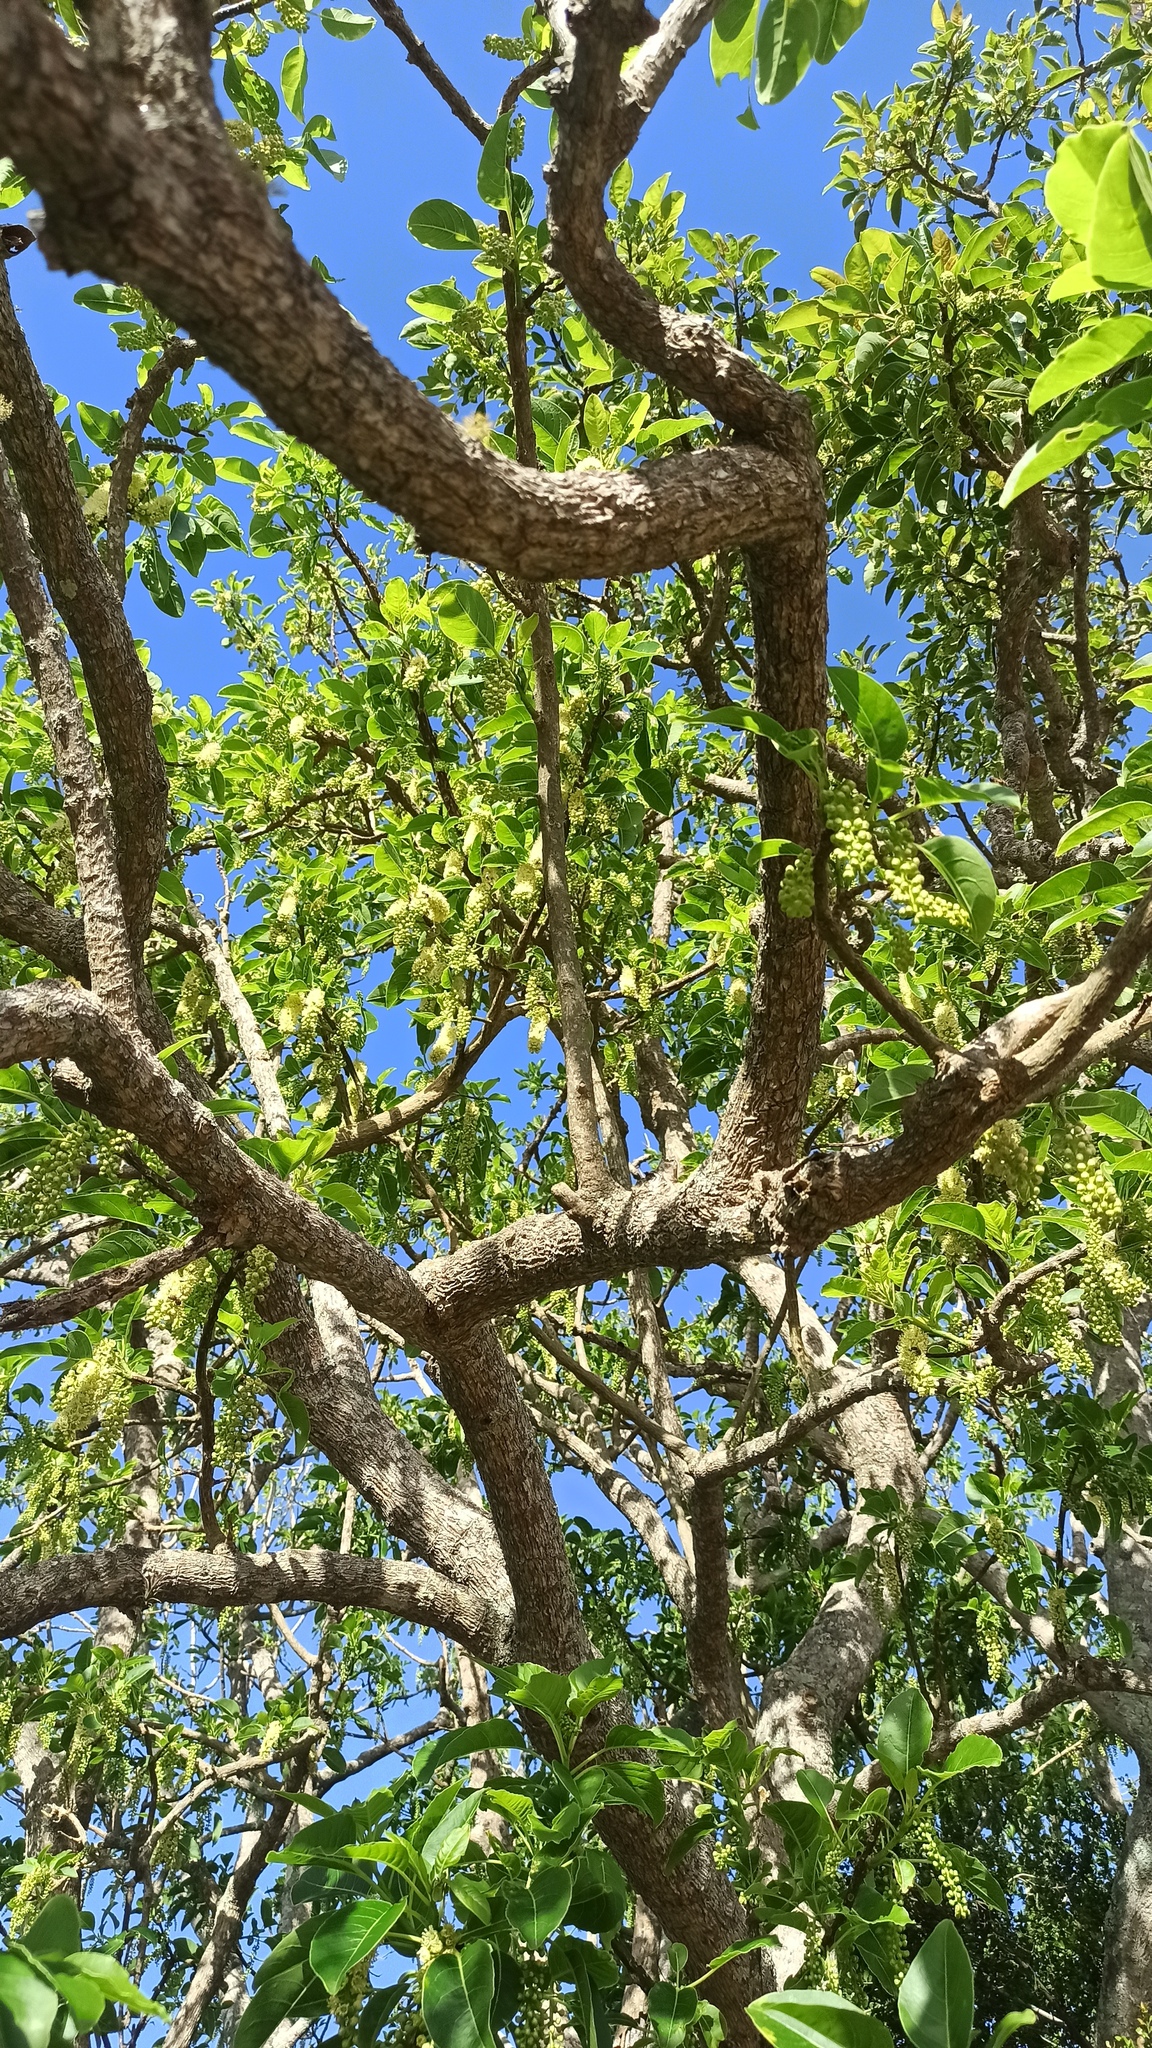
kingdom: Plantae
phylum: Tracheophyta
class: Magnoliopsida
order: Caryophyllales
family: Phytolaccaceae
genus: Phytolacca
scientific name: Phytolacca dioica
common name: Pokeweed
